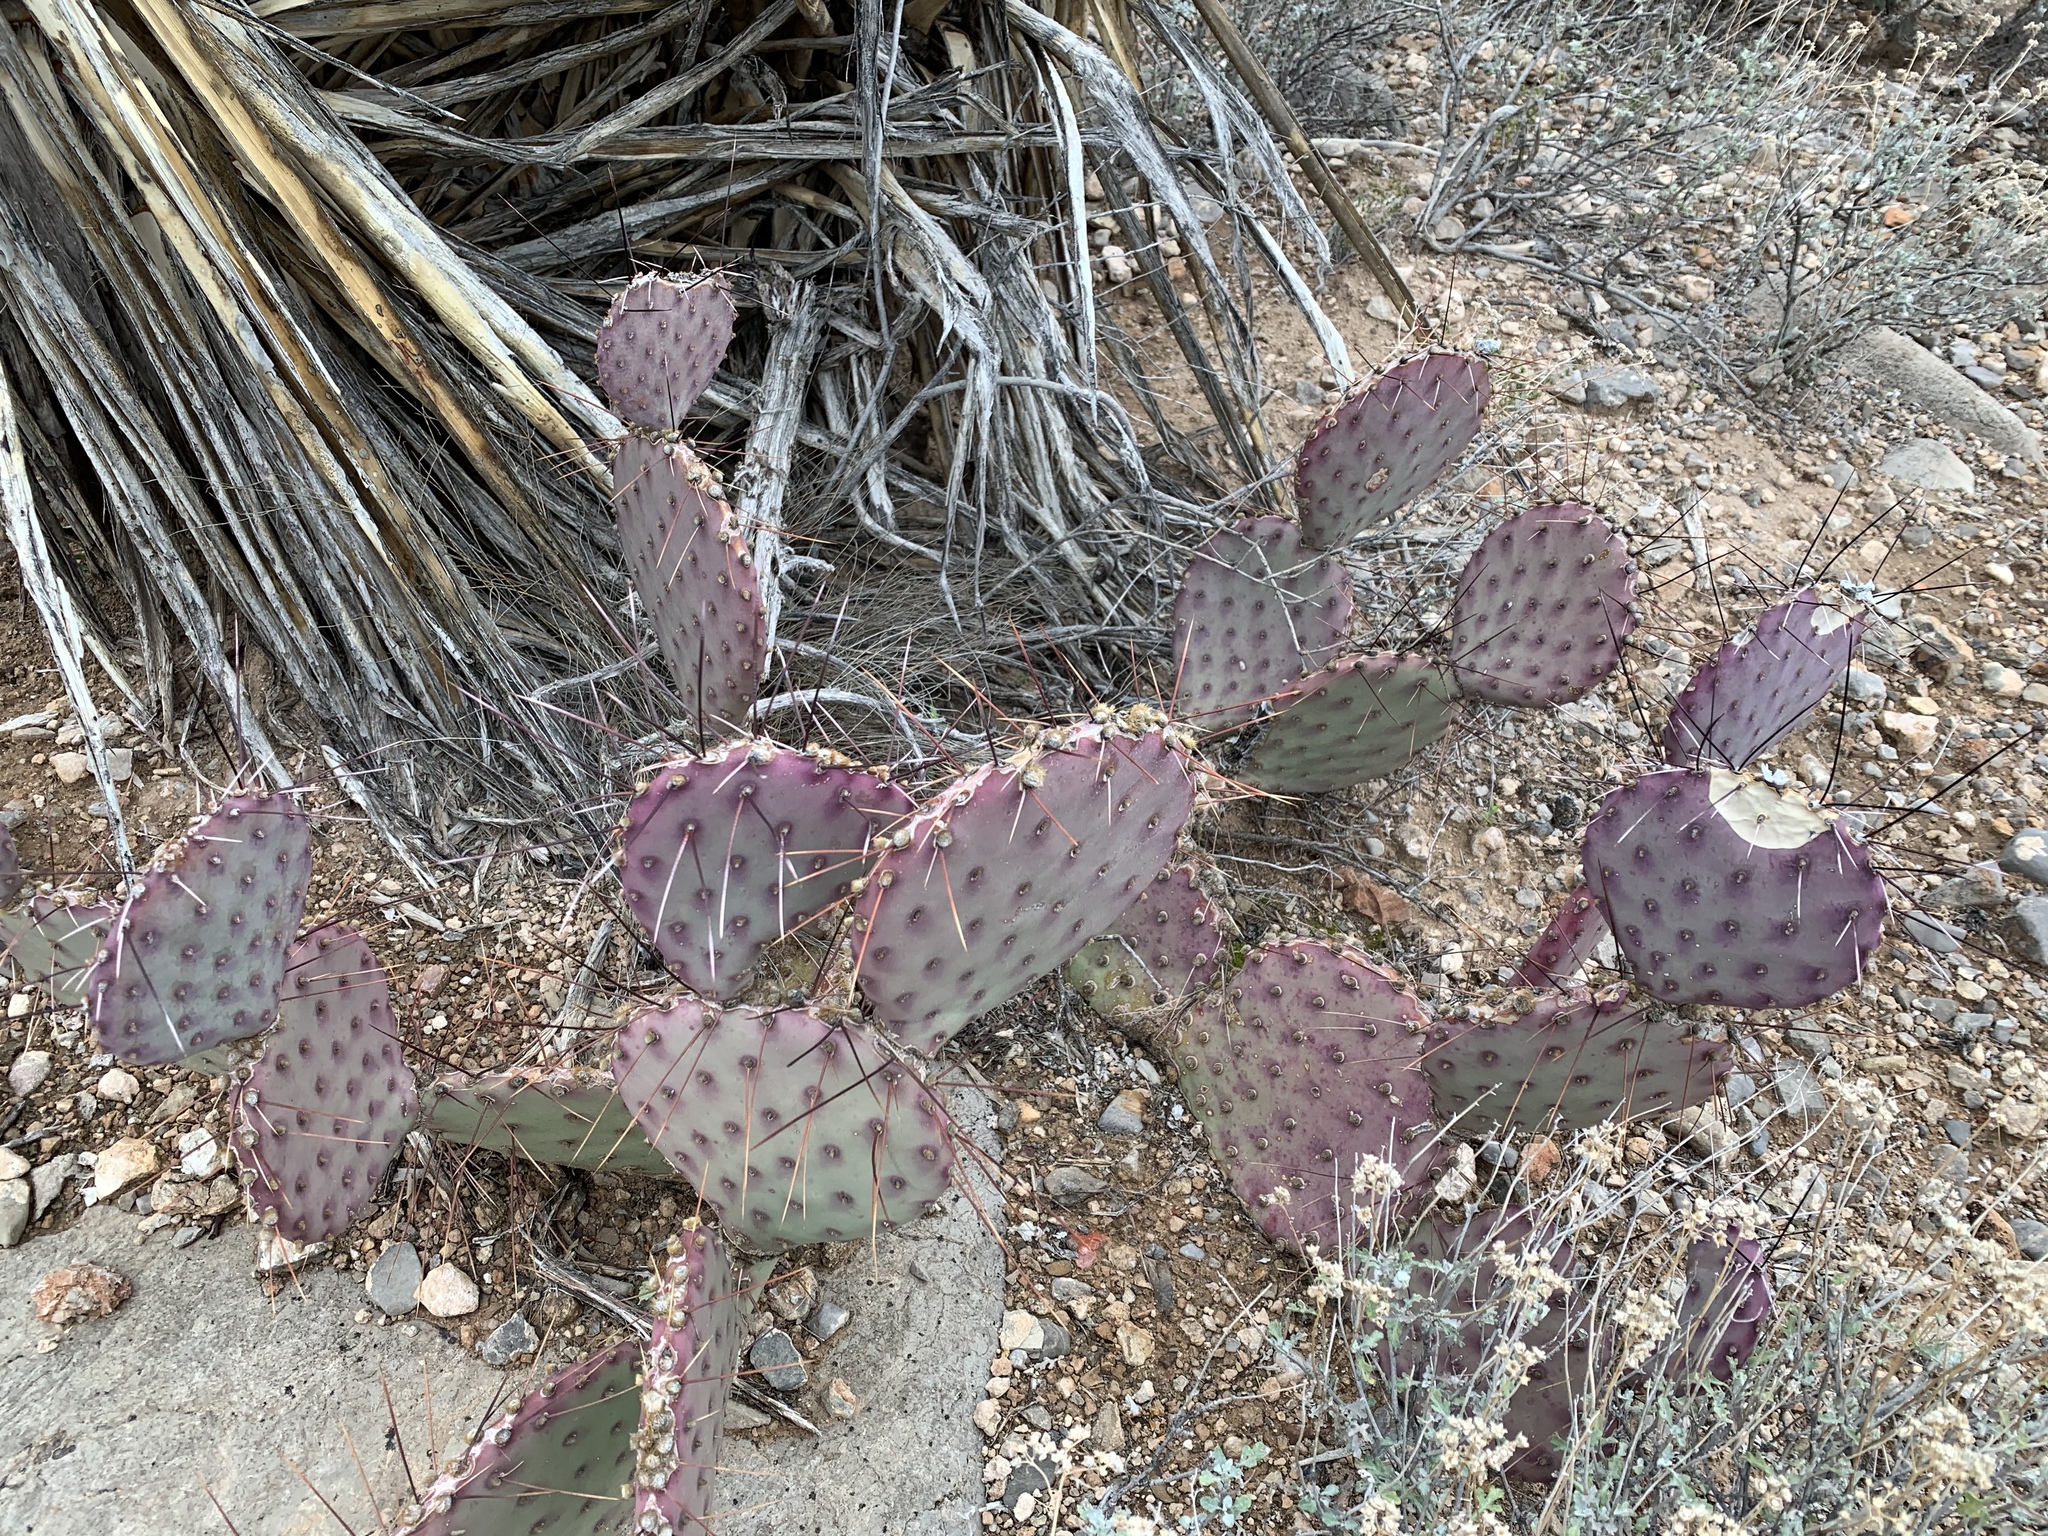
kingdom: Plantae
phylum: Tracheophyta
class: Magnoliopsida
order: Caryophyllales
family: Cactaceae
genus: Opuntia
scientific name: Opuntia macrocentra
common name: Purple prickly-pear
